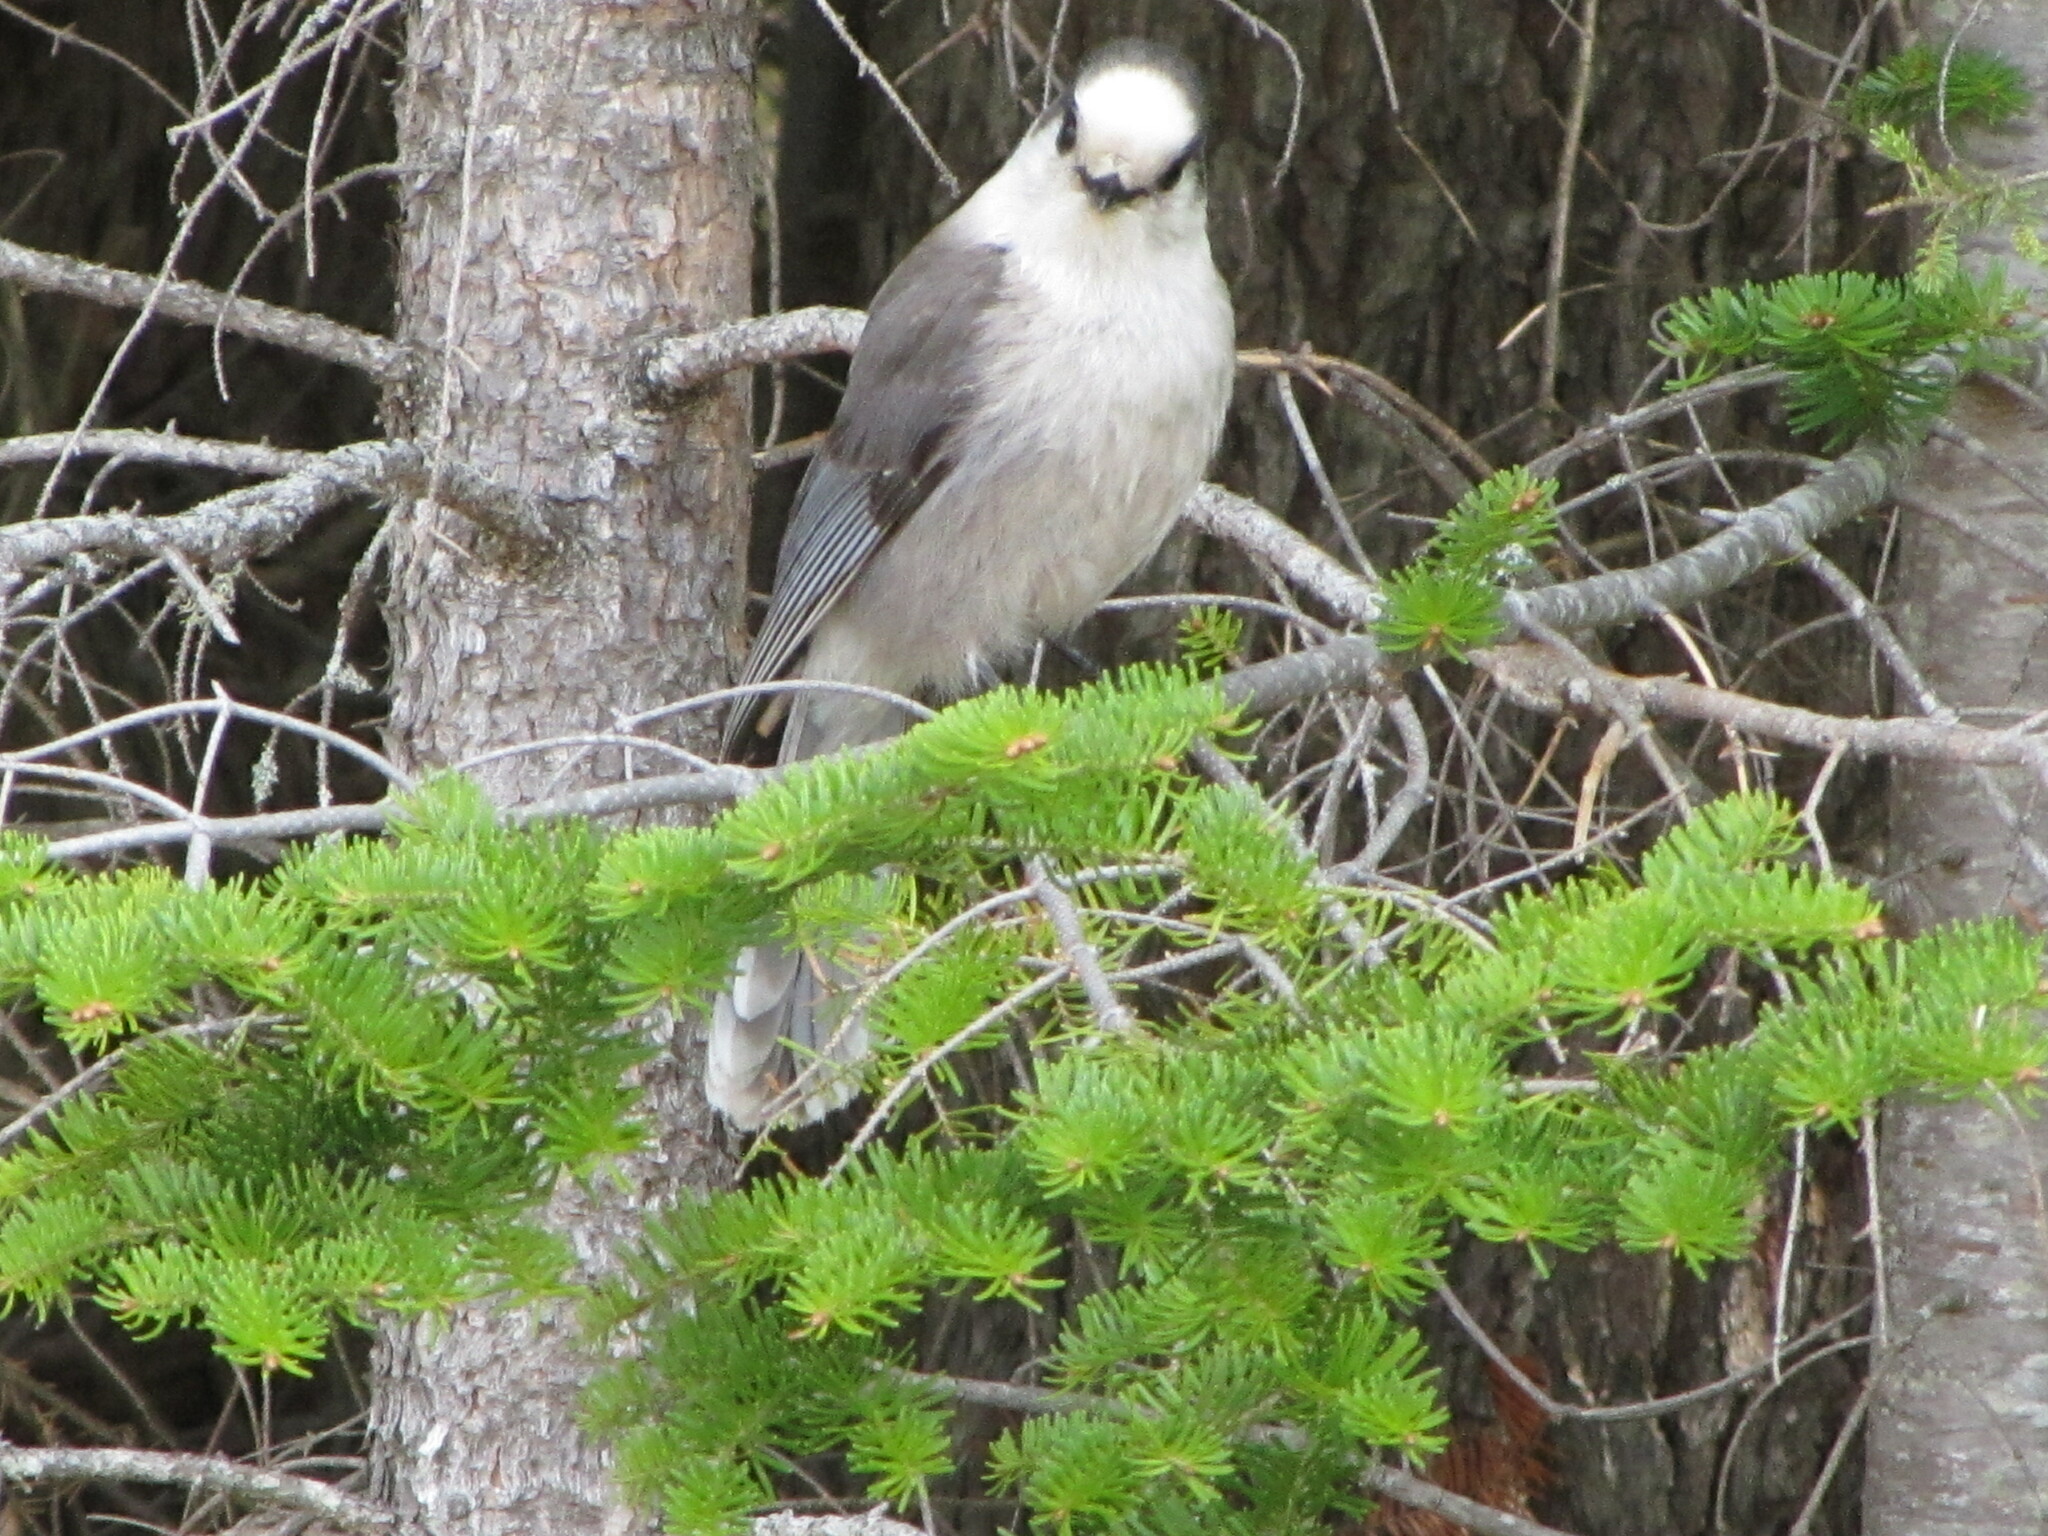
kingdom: Animalia
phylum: Chordata
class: Aves
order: Passeriformes
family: Corvidae
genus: Perisoreus
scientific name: Perisoreus canadensis
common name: Gray jay
